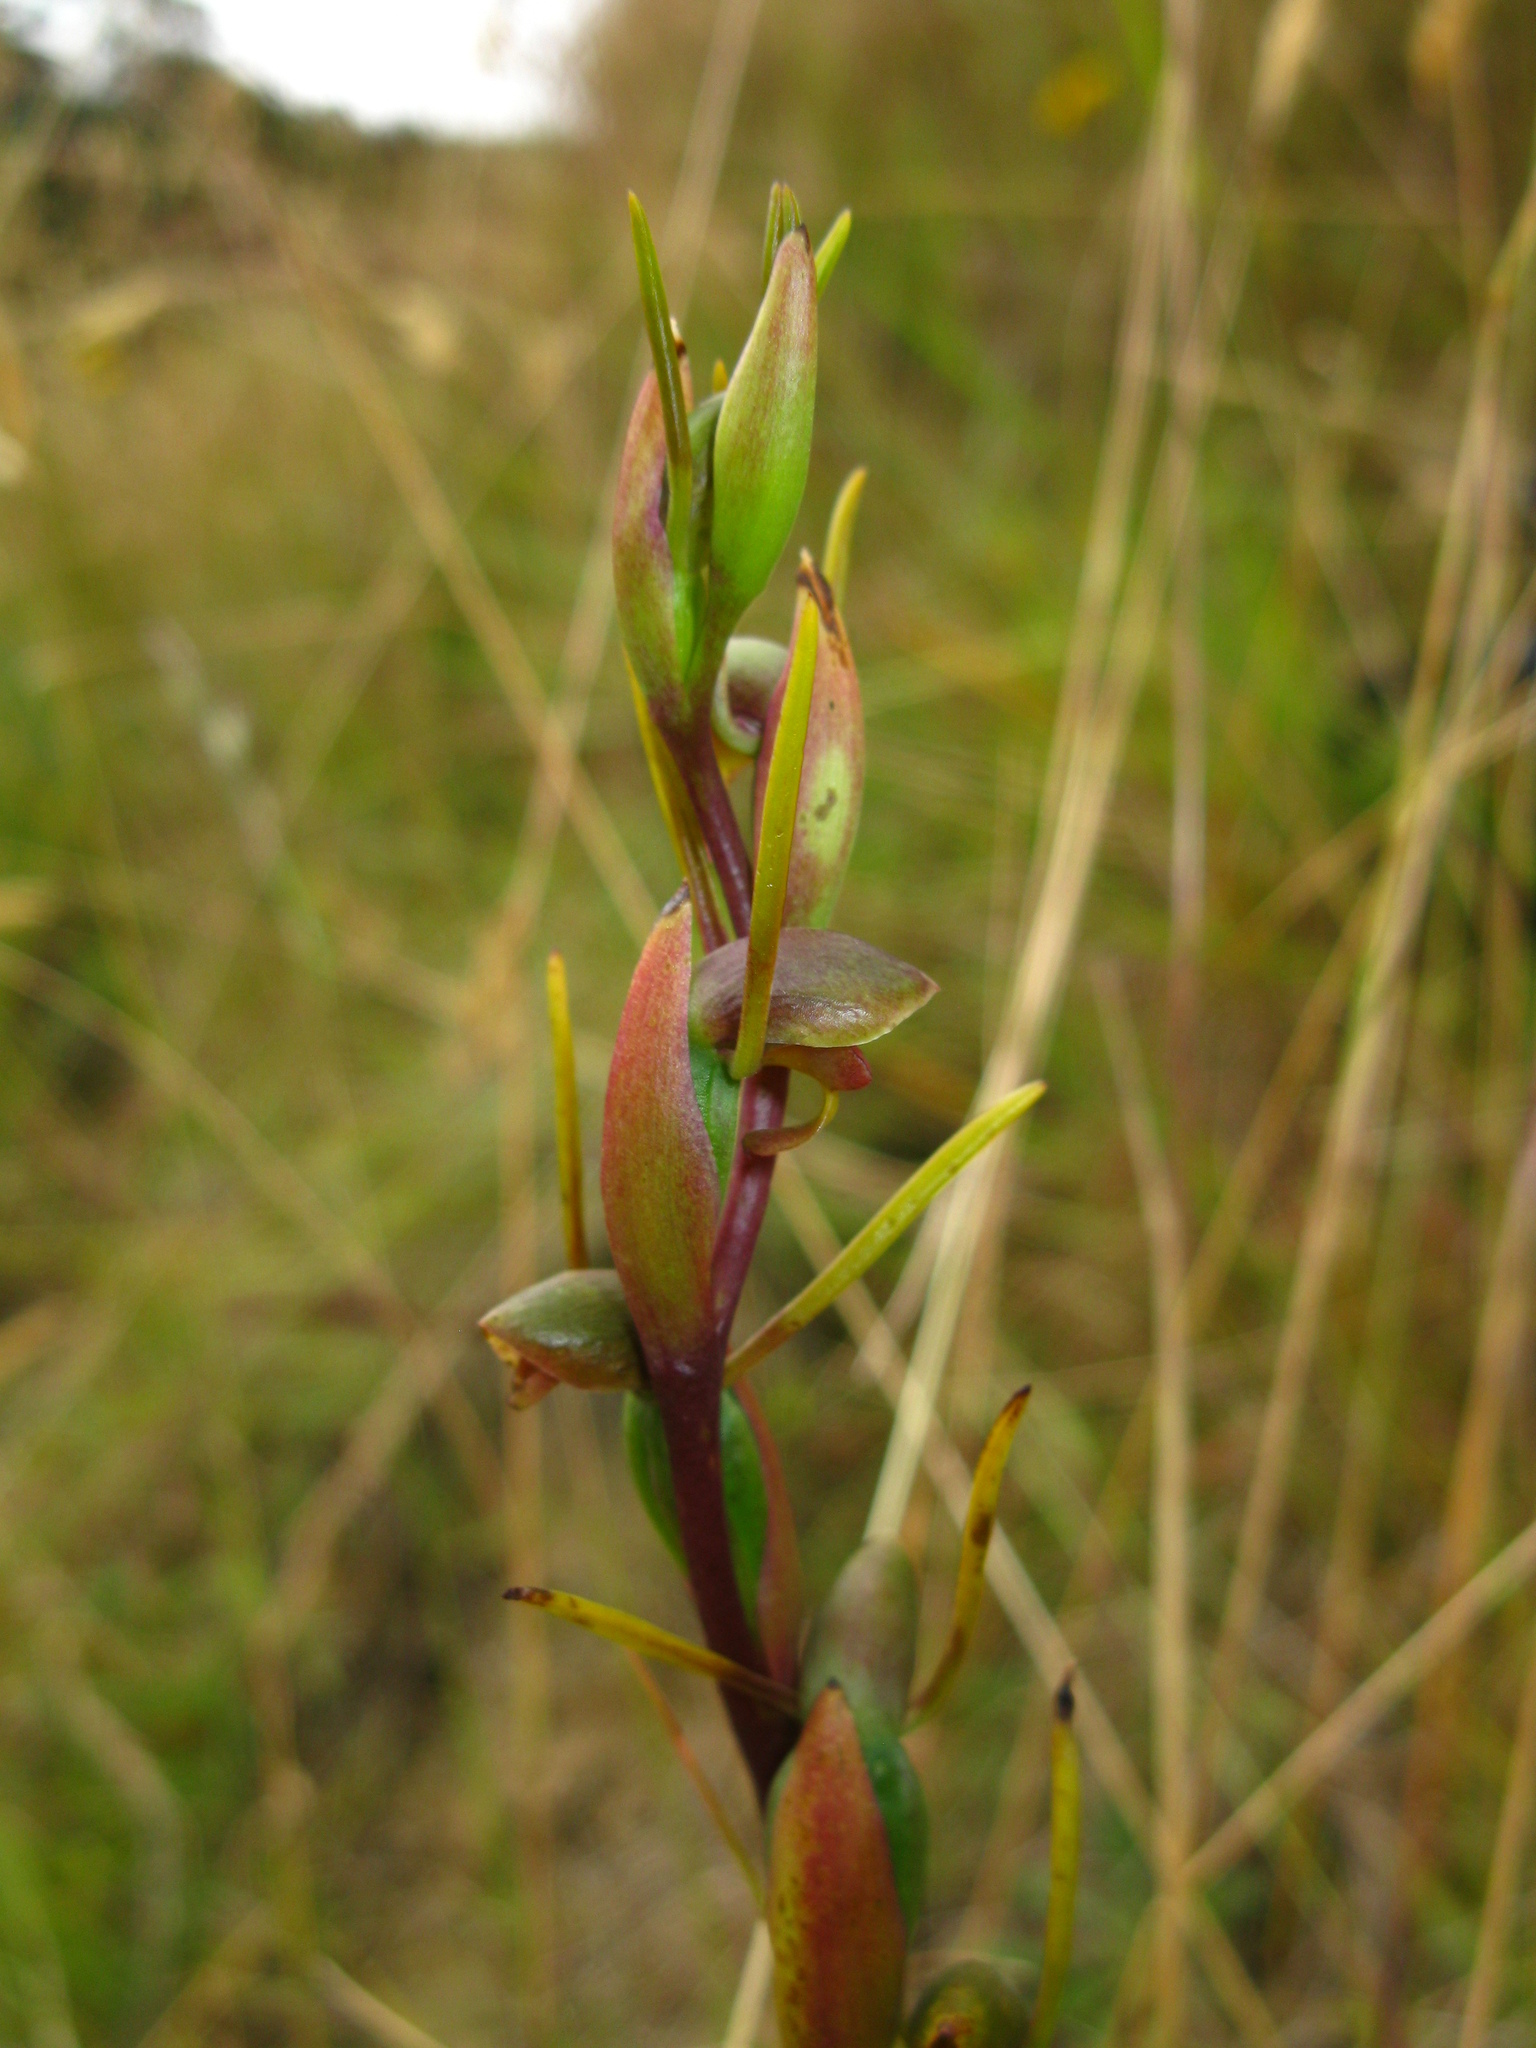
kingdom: Plantae
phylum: Tracheophyta
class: Liliopsida
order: Asparagales
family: Orchidaceae
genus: Orthoceras
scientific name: Orthoceras novae-zeelandiae
